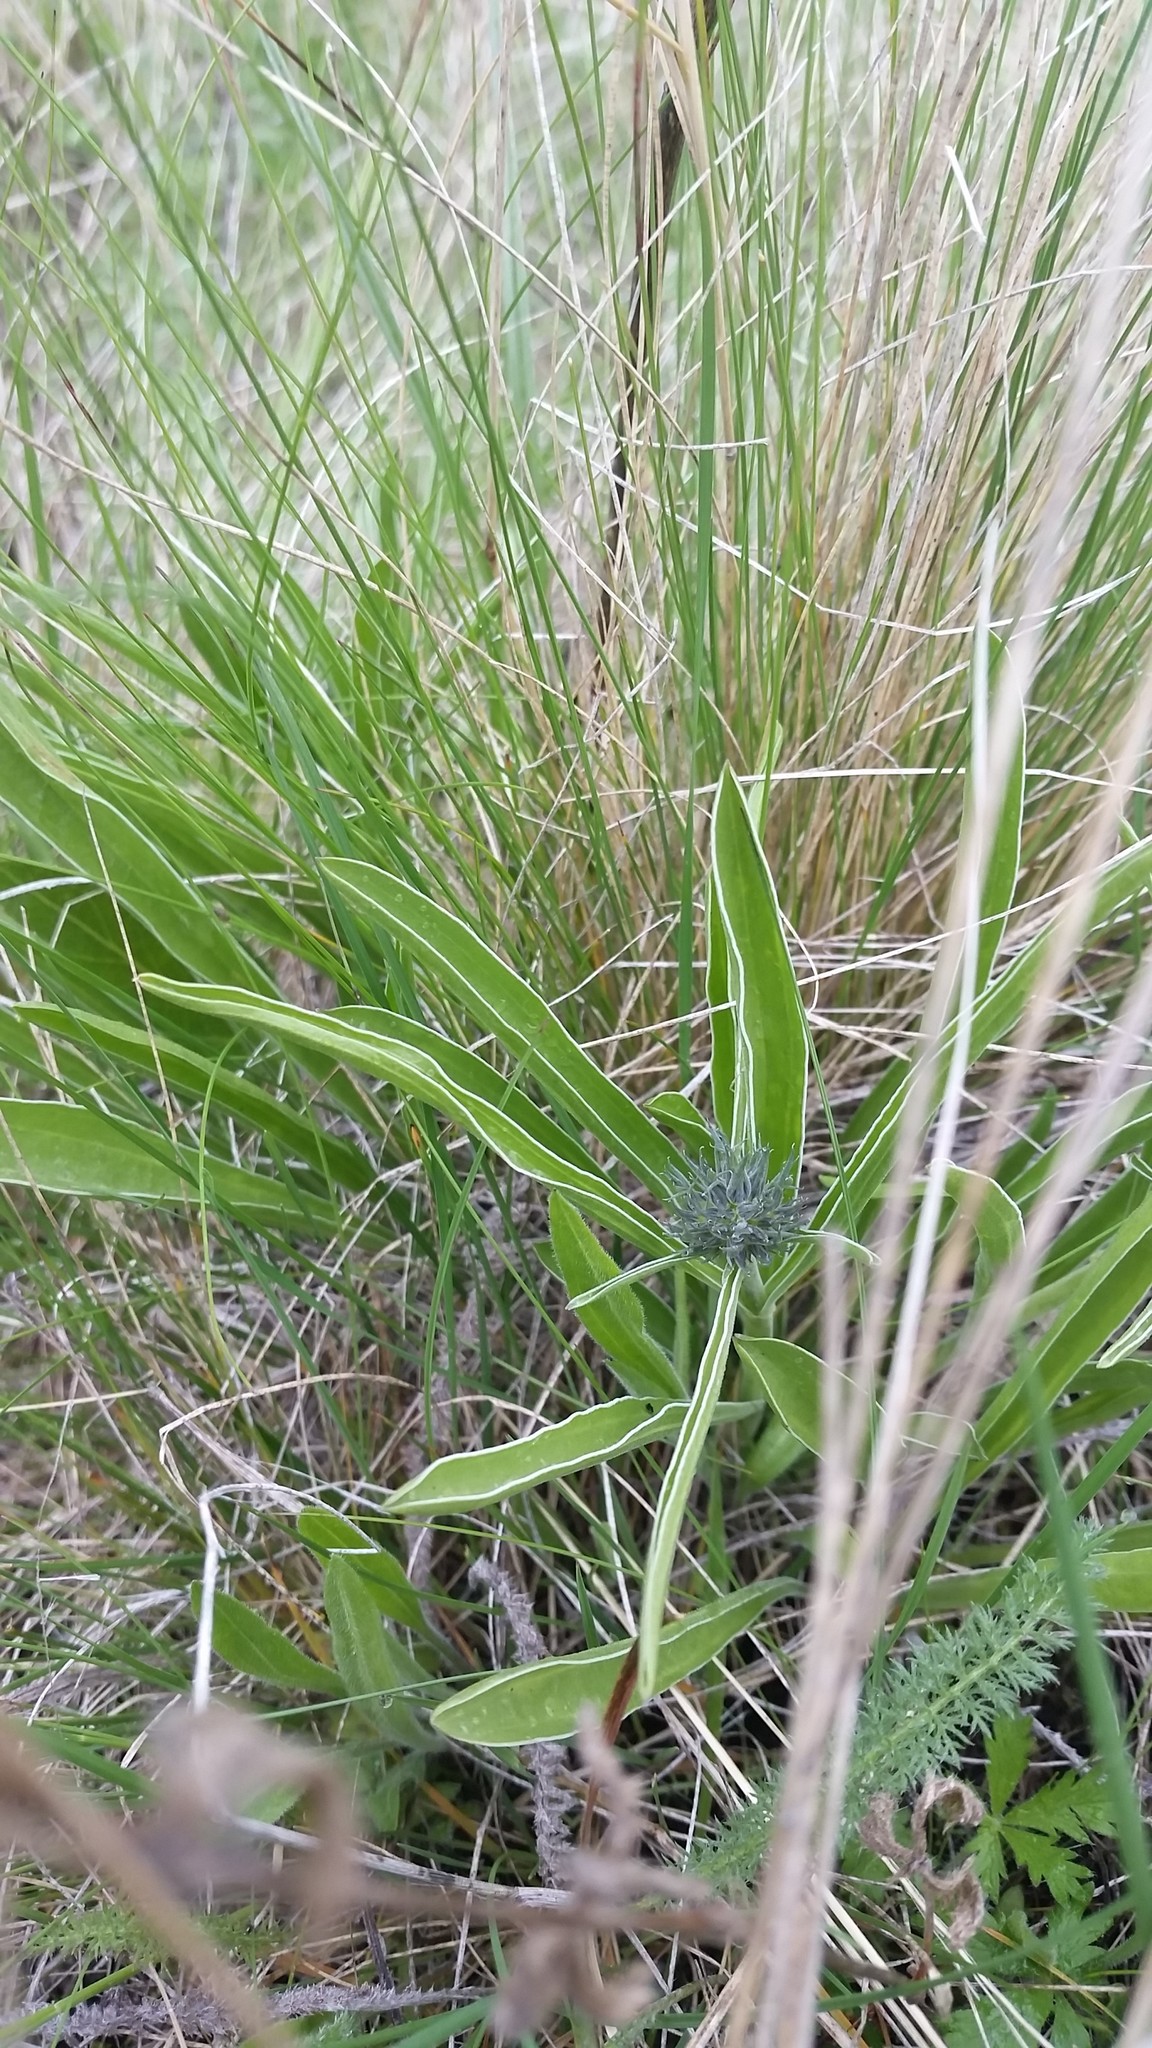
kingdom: Plantae
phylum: Tracheophyta
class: Magnoliopsida
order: Gentianales
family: Gentianaceae
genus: Frasera
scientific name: Frasera albicaulis
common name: Cusick's frasera
